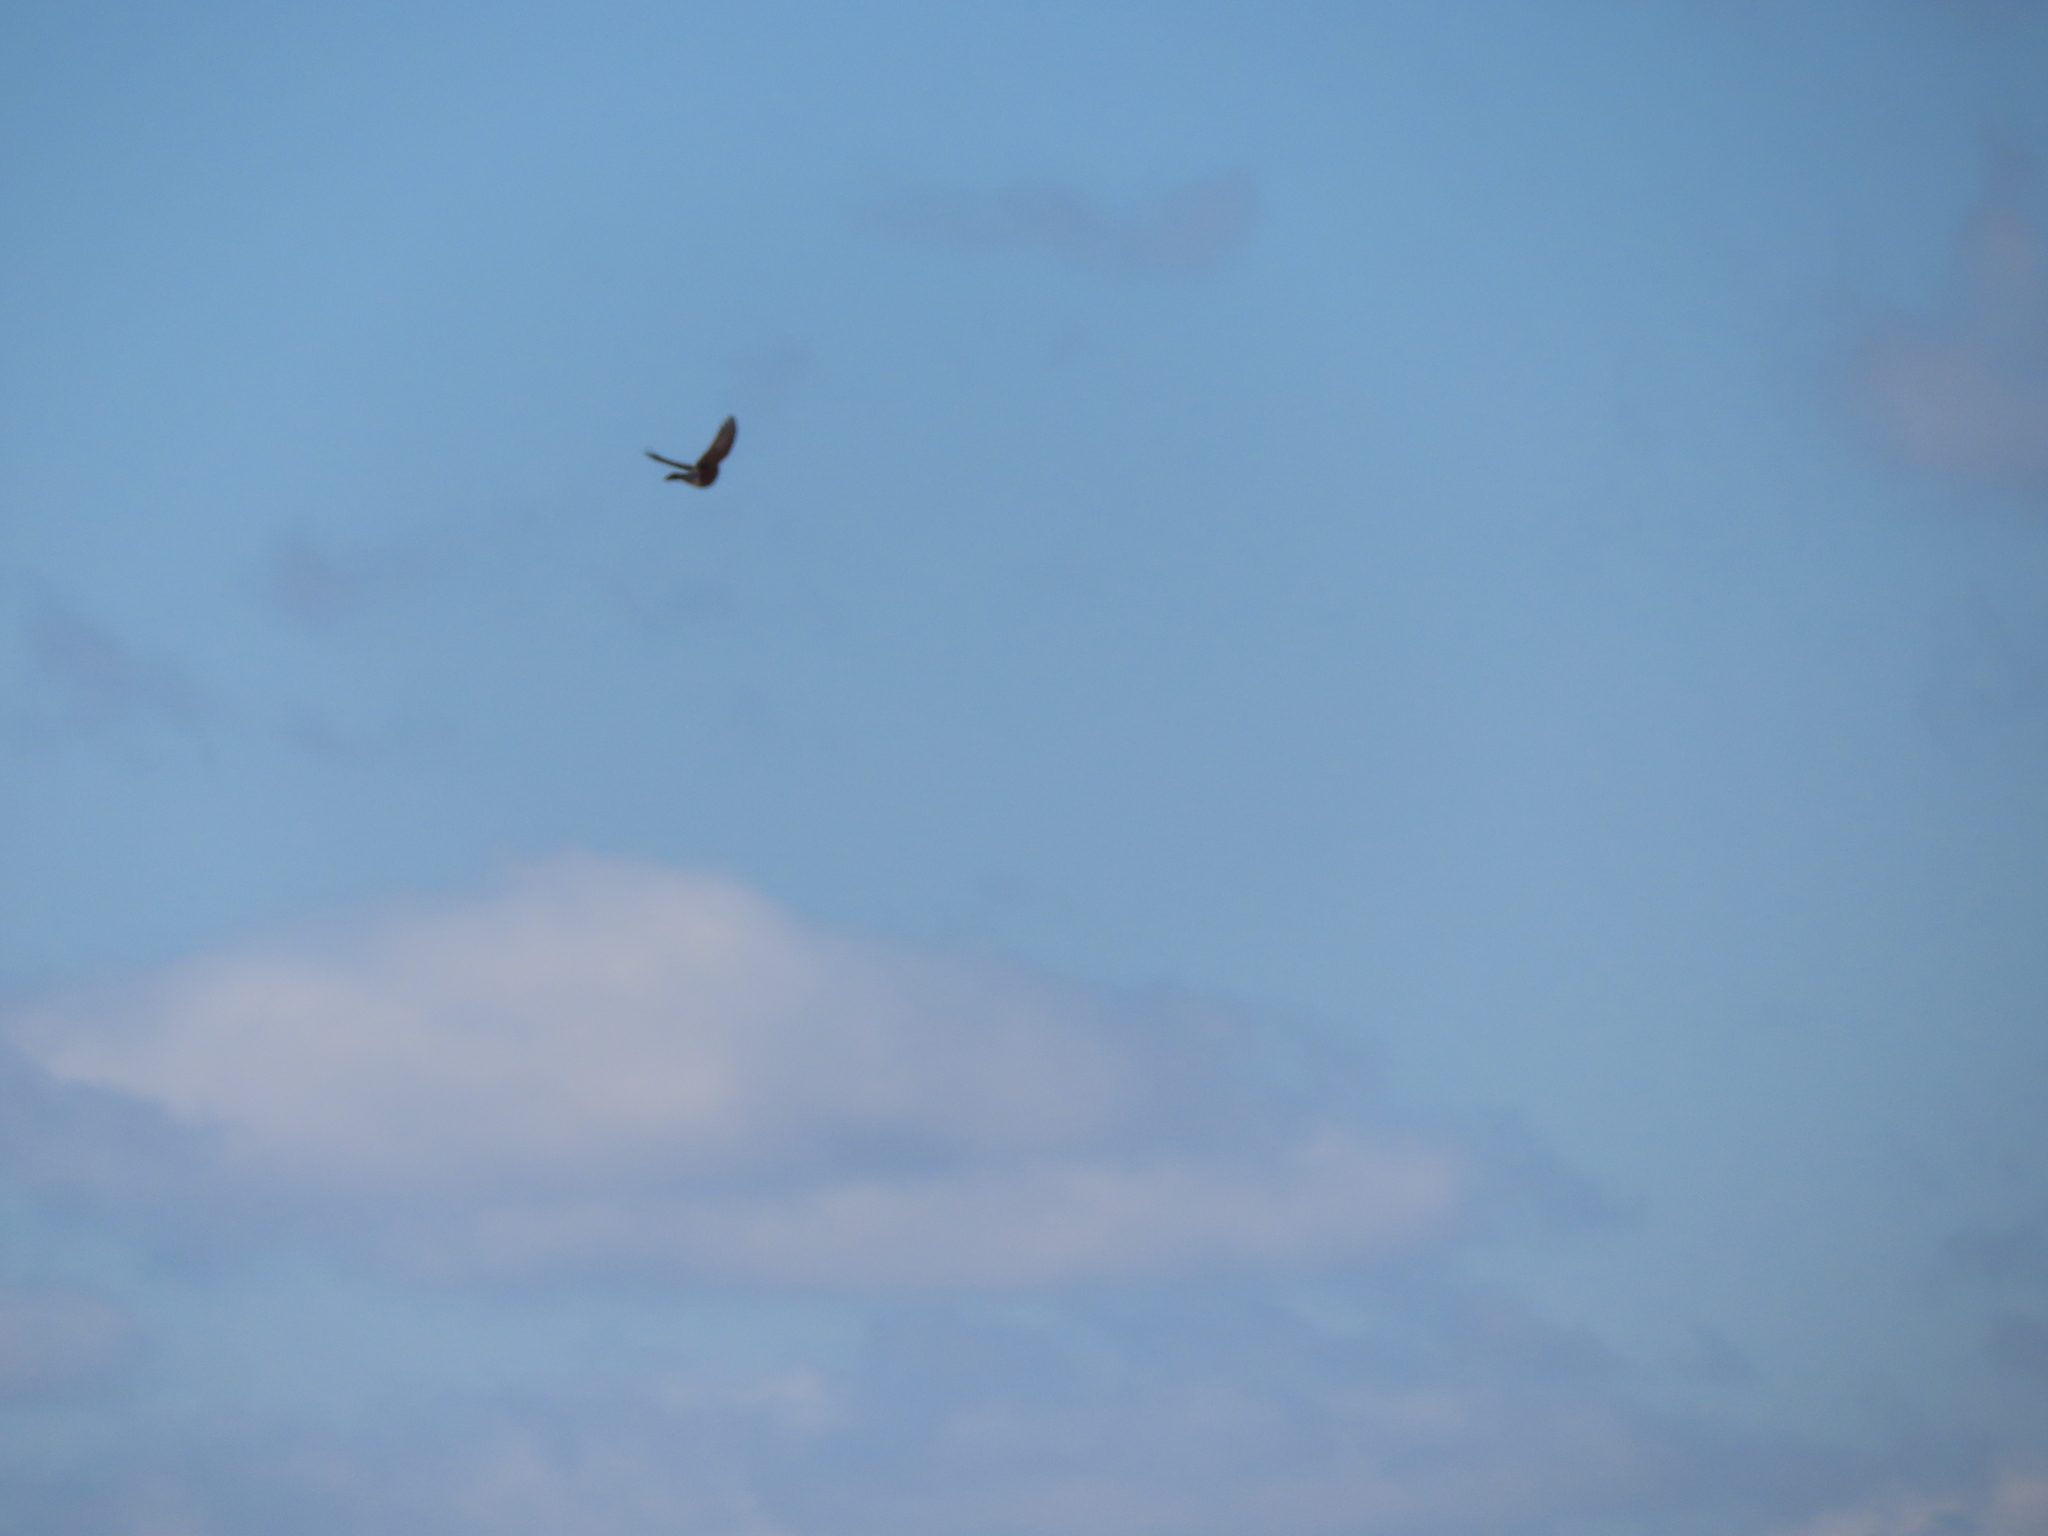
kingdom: Animalia
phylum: Chordata
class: Aves
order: Passeriformes
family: Turdidae
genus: Turdus
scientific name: Turdus migratorius
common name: American robin
